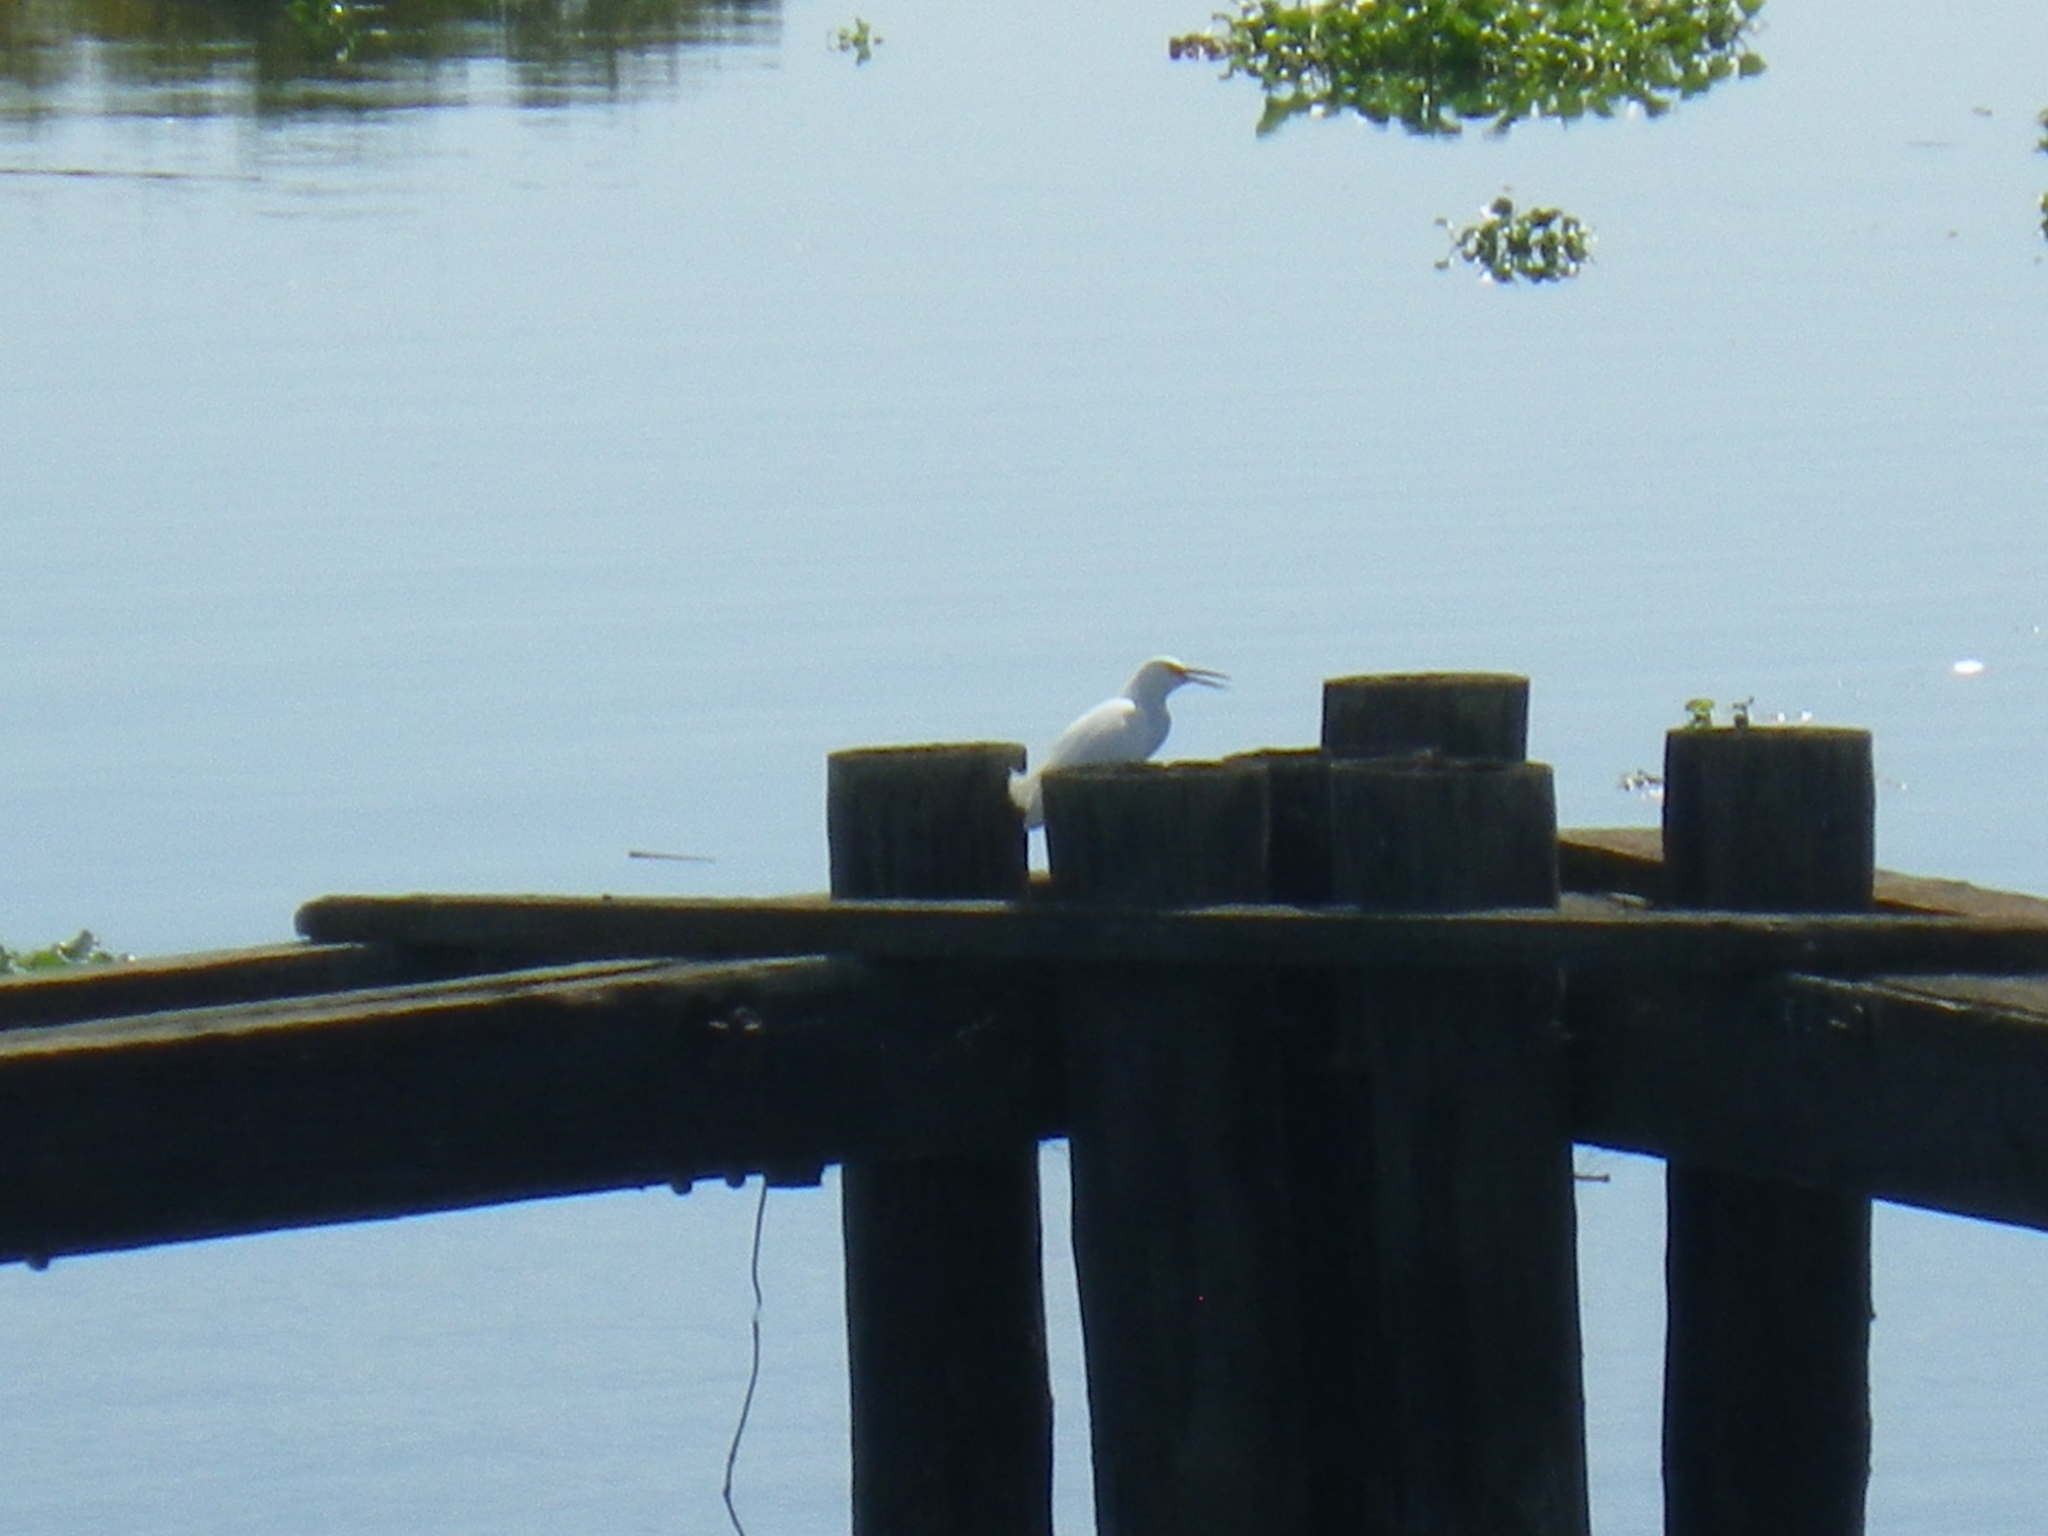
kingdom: Animalia
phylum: Chordata
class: Aves
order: Pelecaniformes
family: Ardeidae
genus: Egretta
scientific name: Egretta thula
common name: Snowy egret
